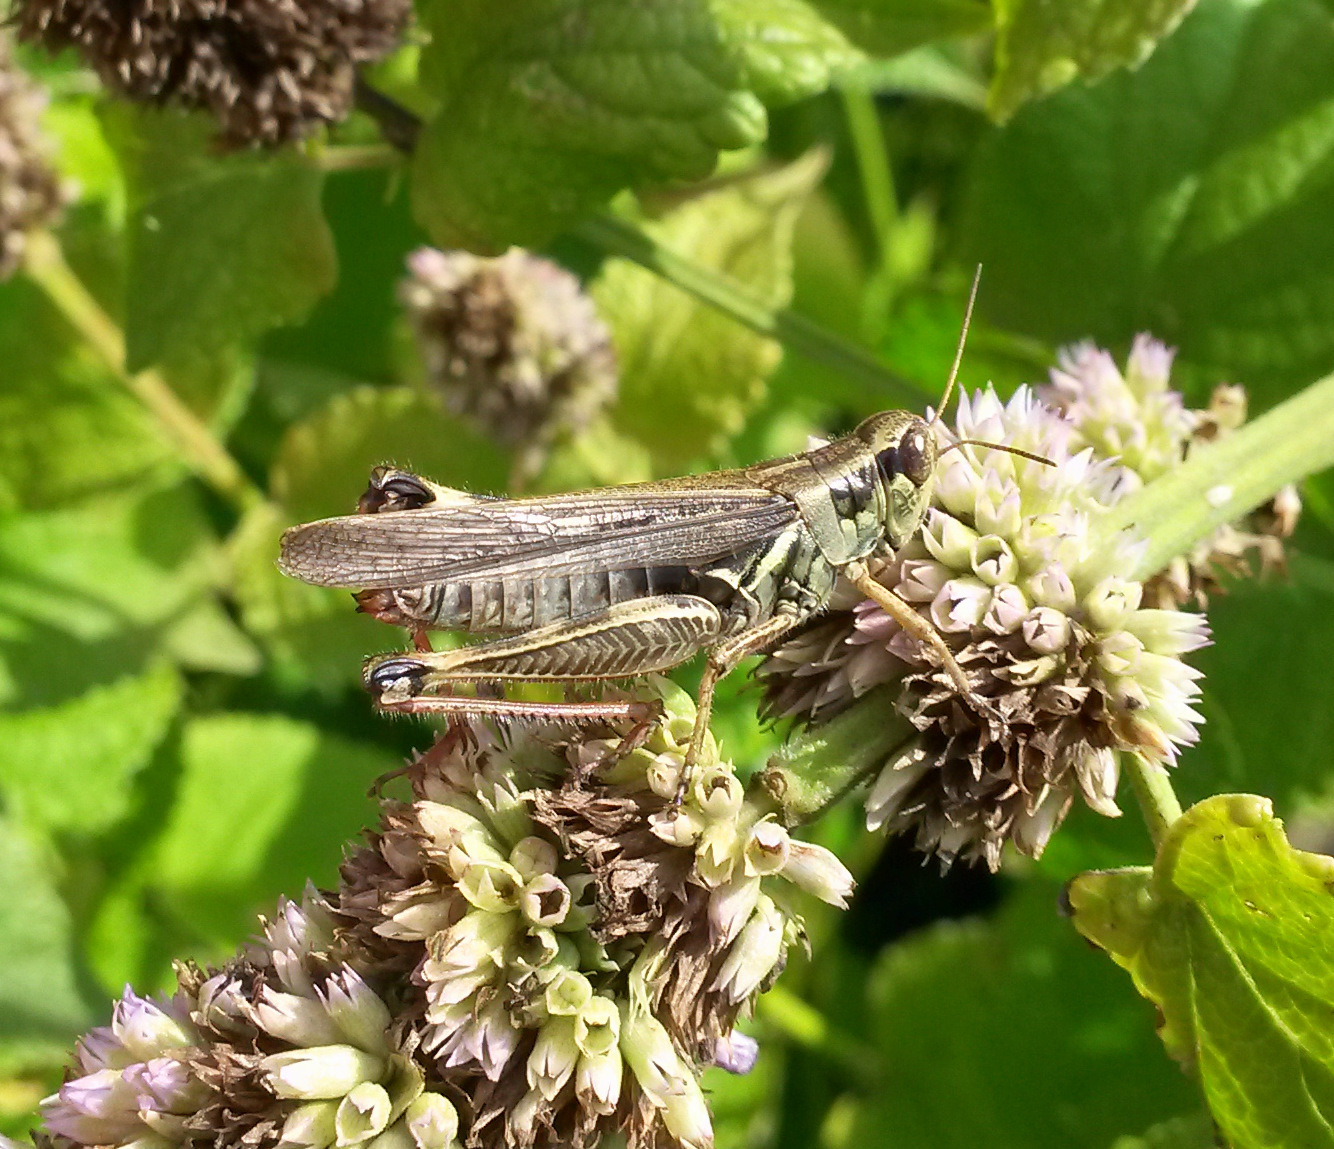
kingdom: Animalia
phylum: Arthropoda
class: Insecta
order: Orthoptera
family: Acrididae
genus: Melanoplus
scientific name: Melanoplus femurrubrum
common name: Red-legged grasshopper
